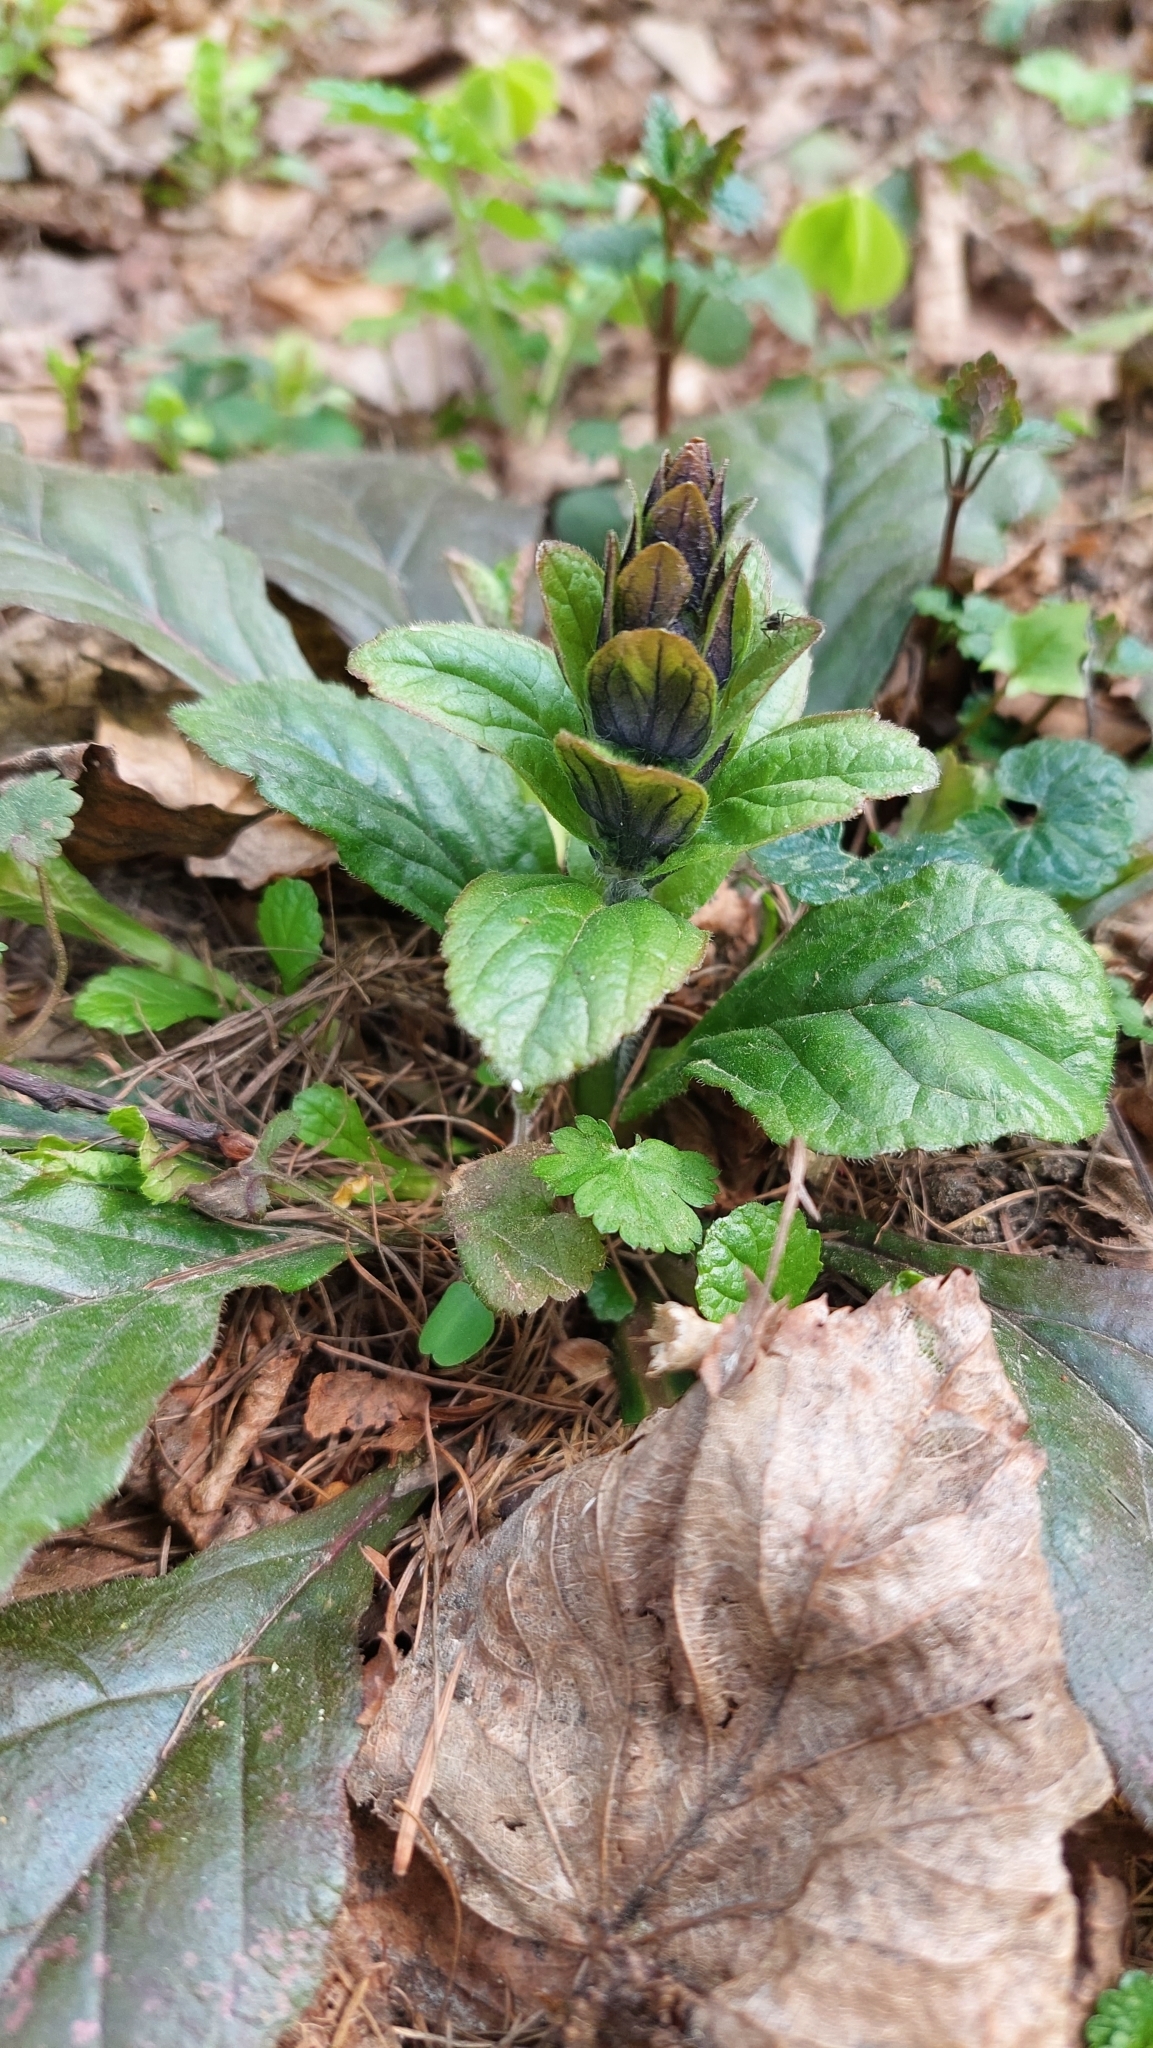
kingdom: Plantae
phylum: Tracheophyta
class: Magnoliopsida
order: Lamiales
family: Lamiaceae
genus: Ajuga
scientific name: Ajuga reptans
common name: Bugle
